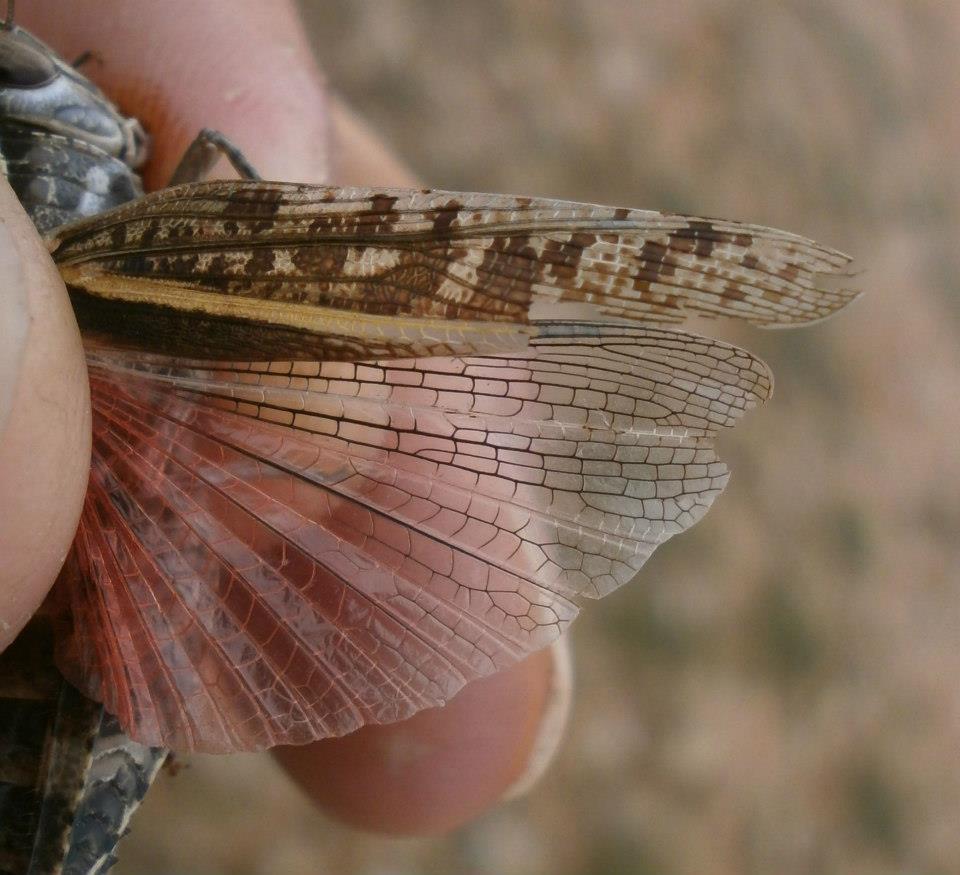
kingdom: Animalia
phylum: Arthropoda
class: Insecta
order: Orthoptera
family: Acrididae
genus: Calliptamus
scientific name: Calliptamus italicus
